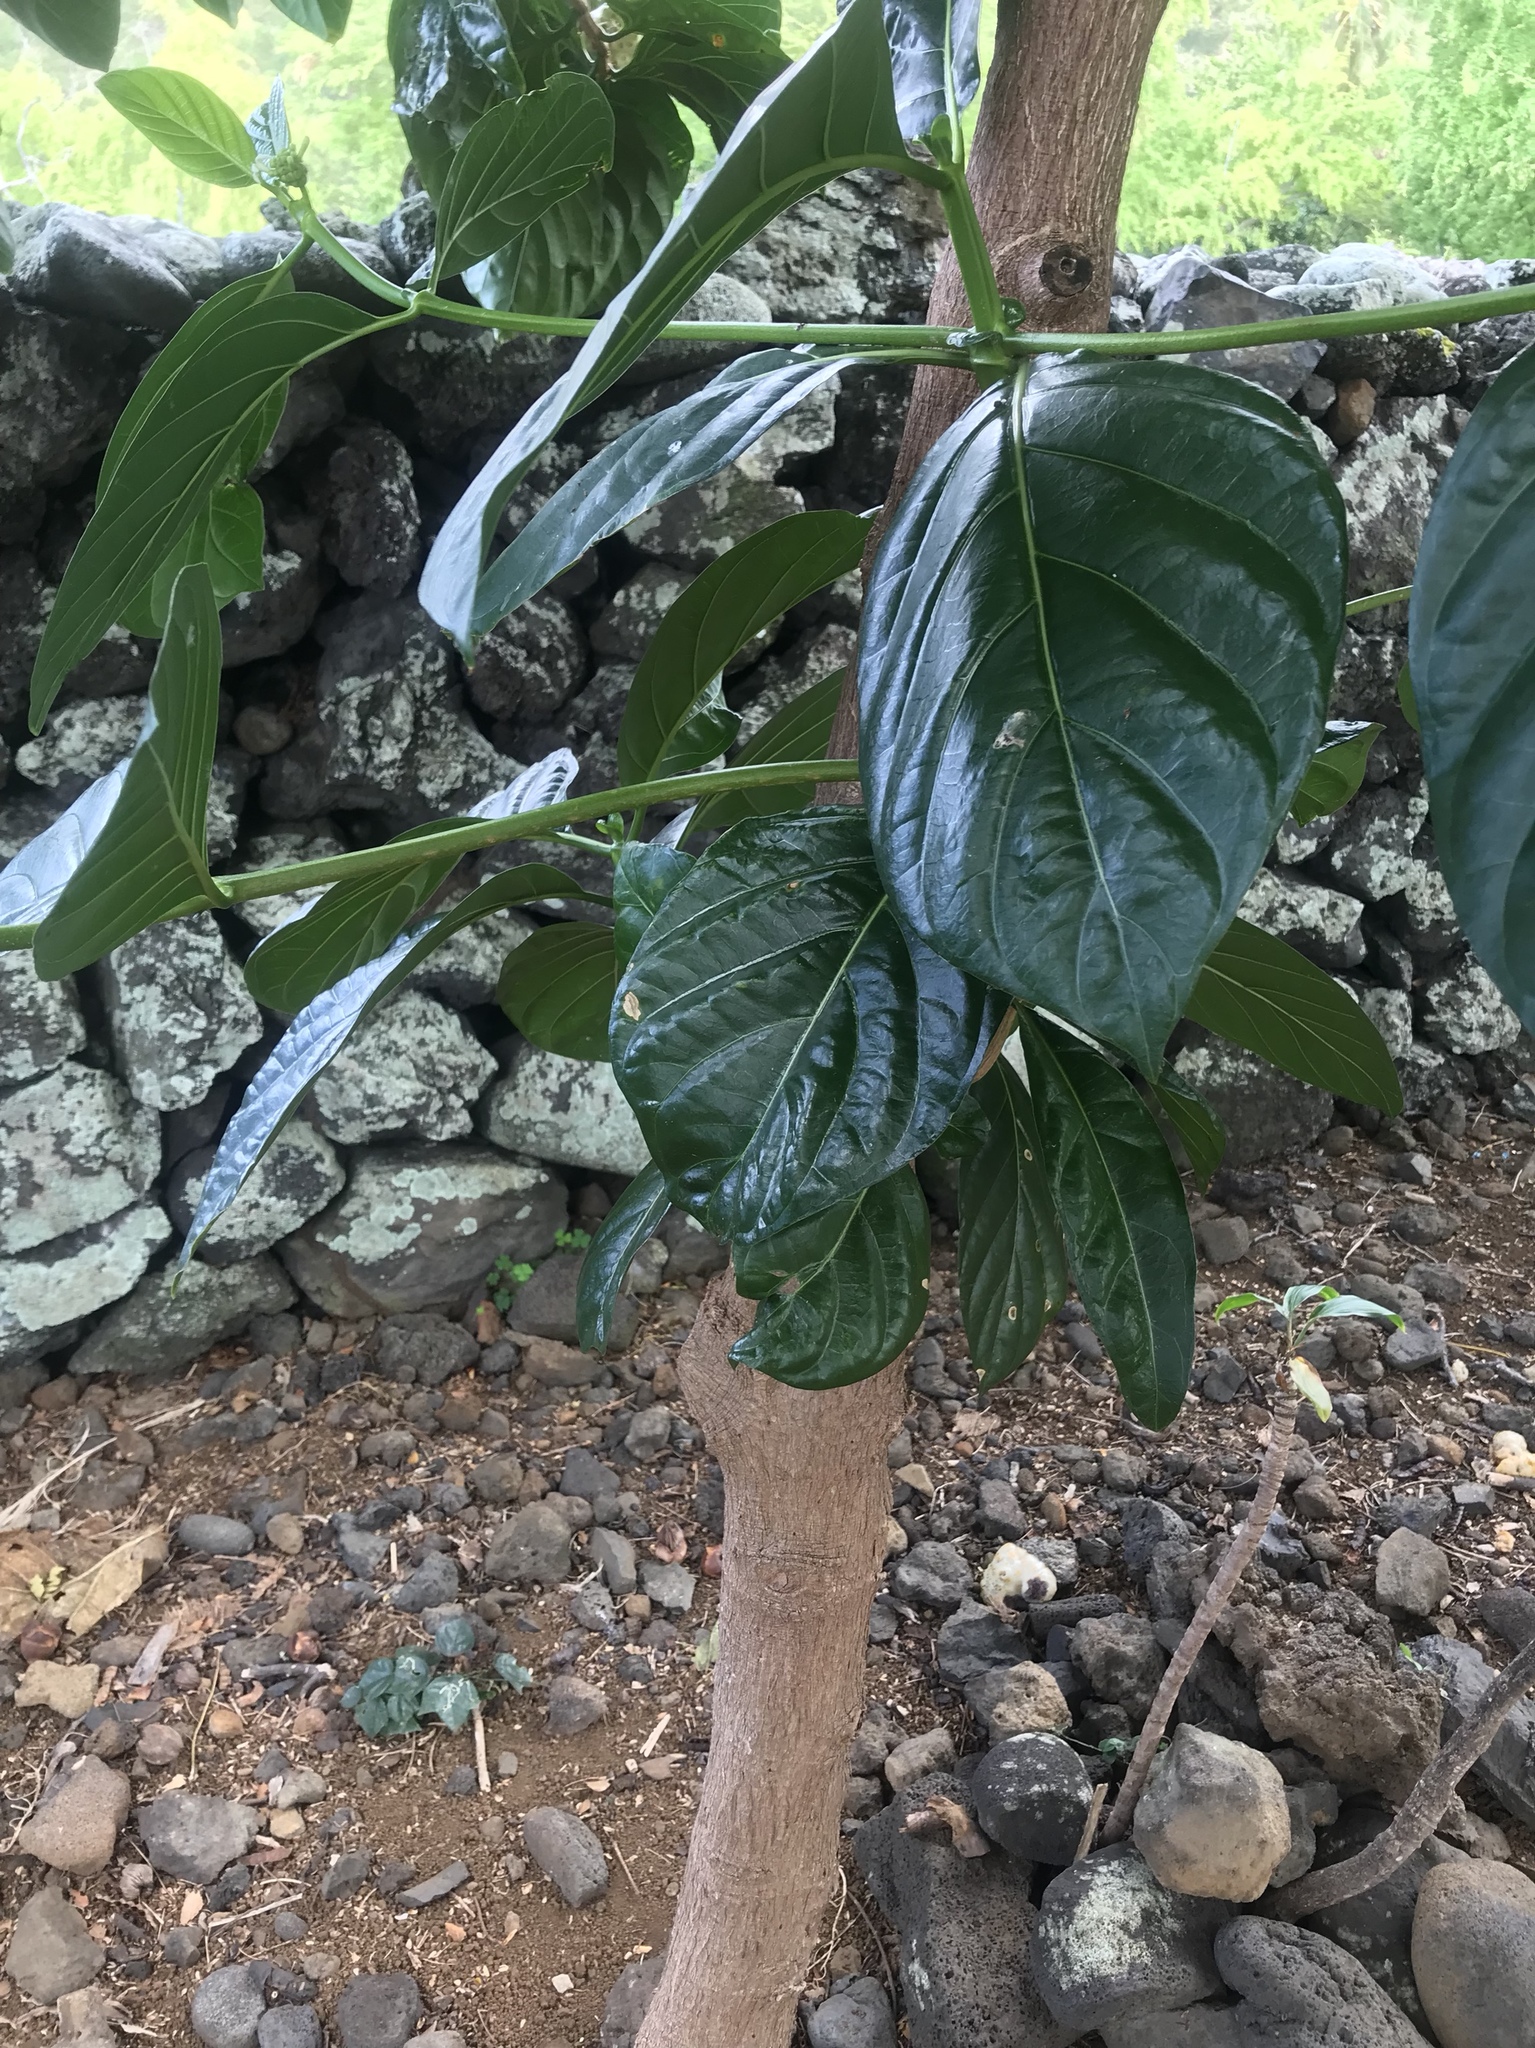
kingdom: Plantae
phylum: Tracheophyta
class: Magnoliopsida
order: Gentianales
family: Rubiaceae
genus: Morinda
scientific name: Morinda citrifolia
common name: Indian-mulberry
